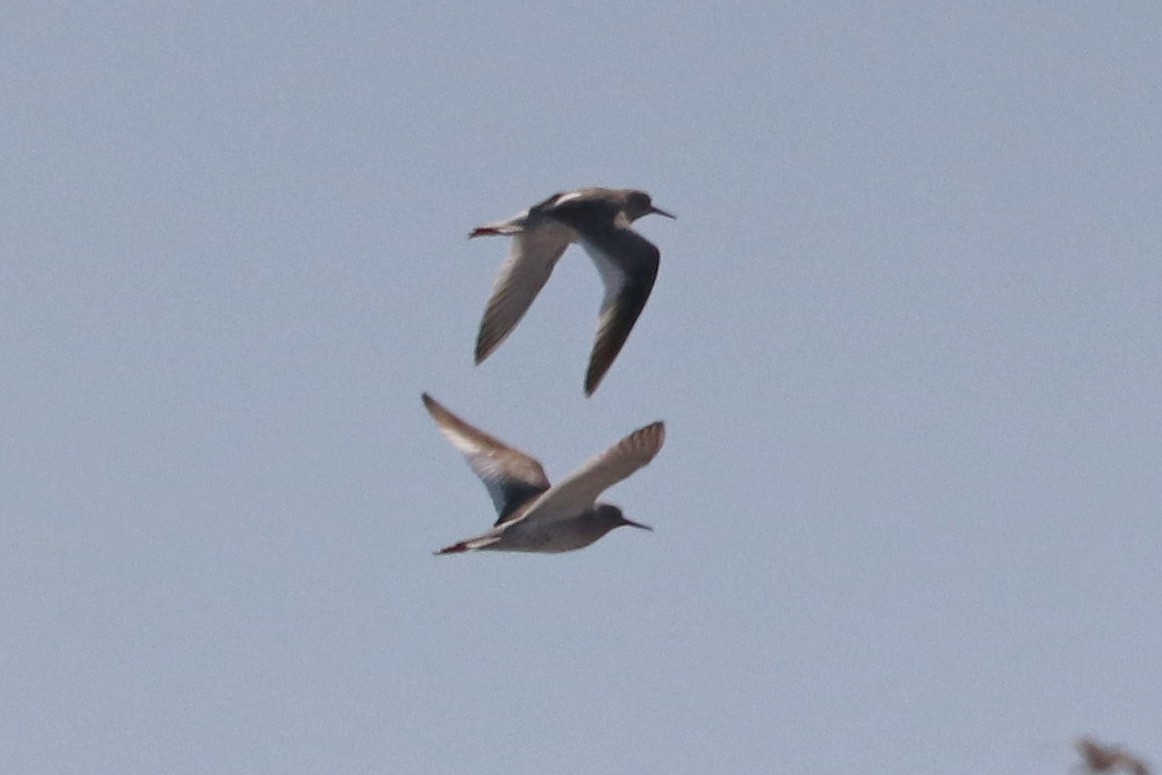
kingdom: Animalia
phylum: Chordata
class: Aves
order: Charadriiformes
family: Scolopacidae
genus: Tringa
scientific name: Tringa totanus
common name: Common redshank
